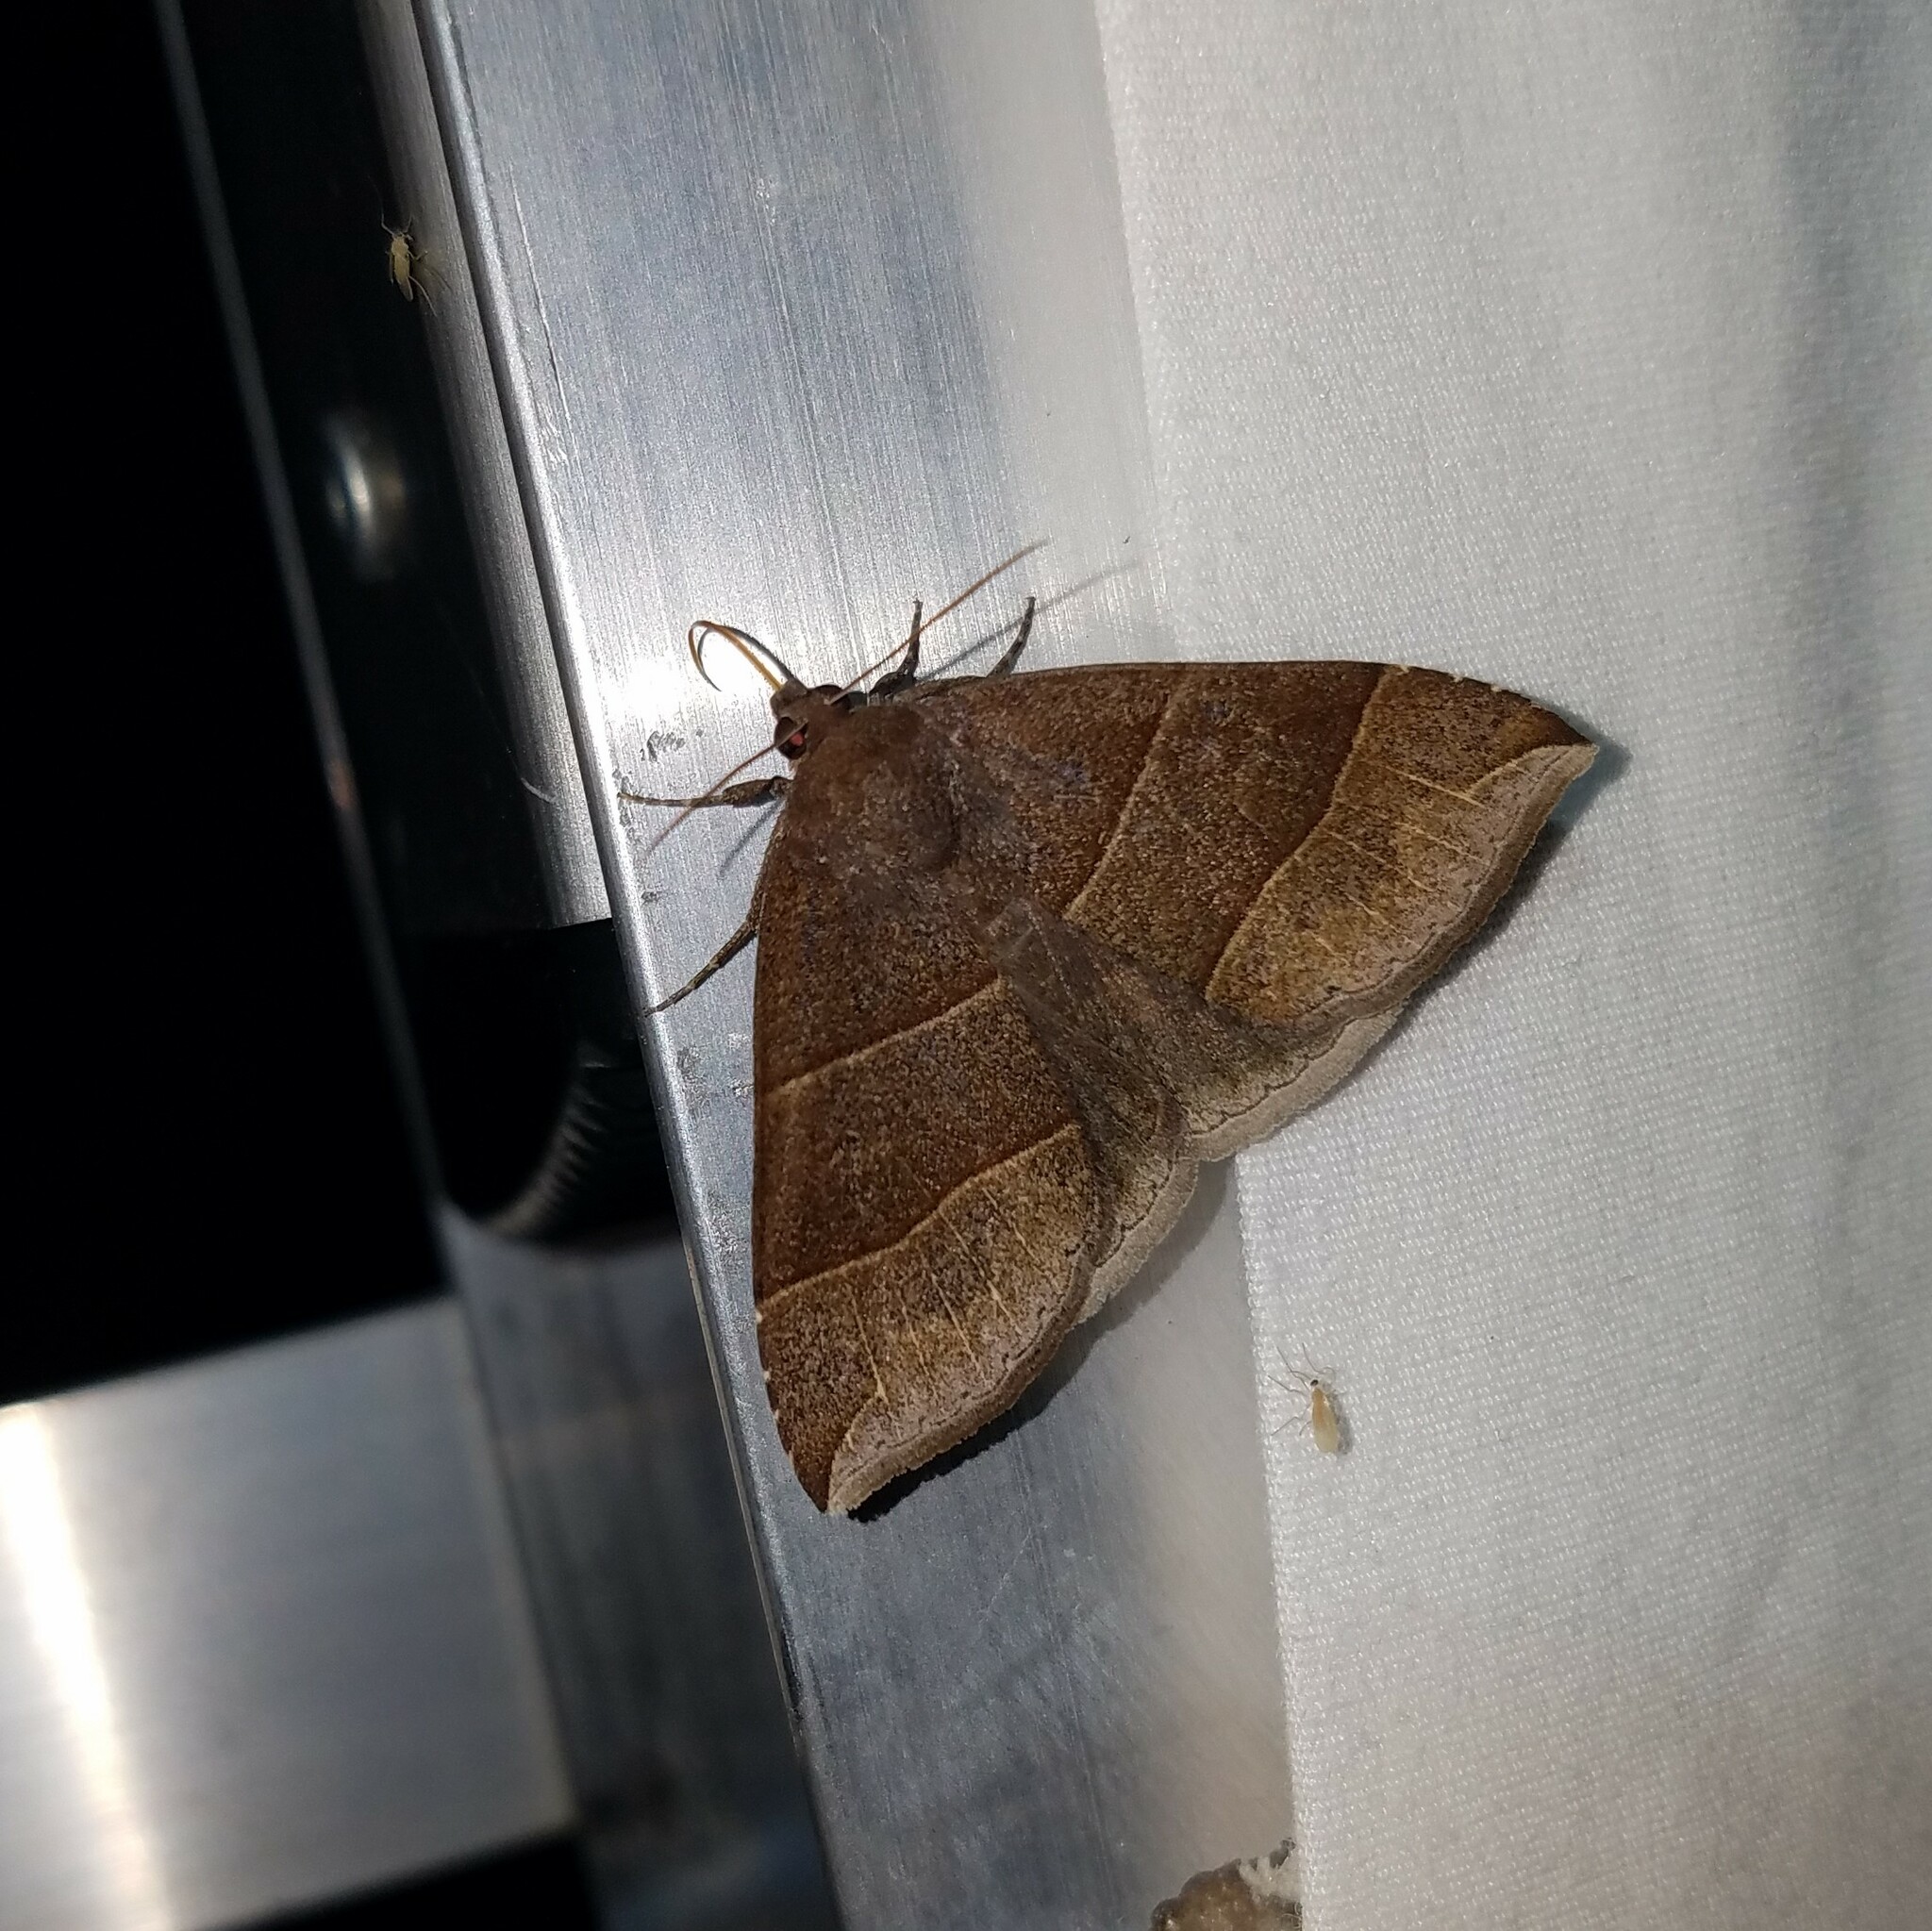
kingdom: Animalia
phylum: Arthropoda
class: Insecta
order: Lepidoptera
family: Erebidae
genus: Parallelia
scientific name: Parallelia bistriaris
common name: Maple looper moth
